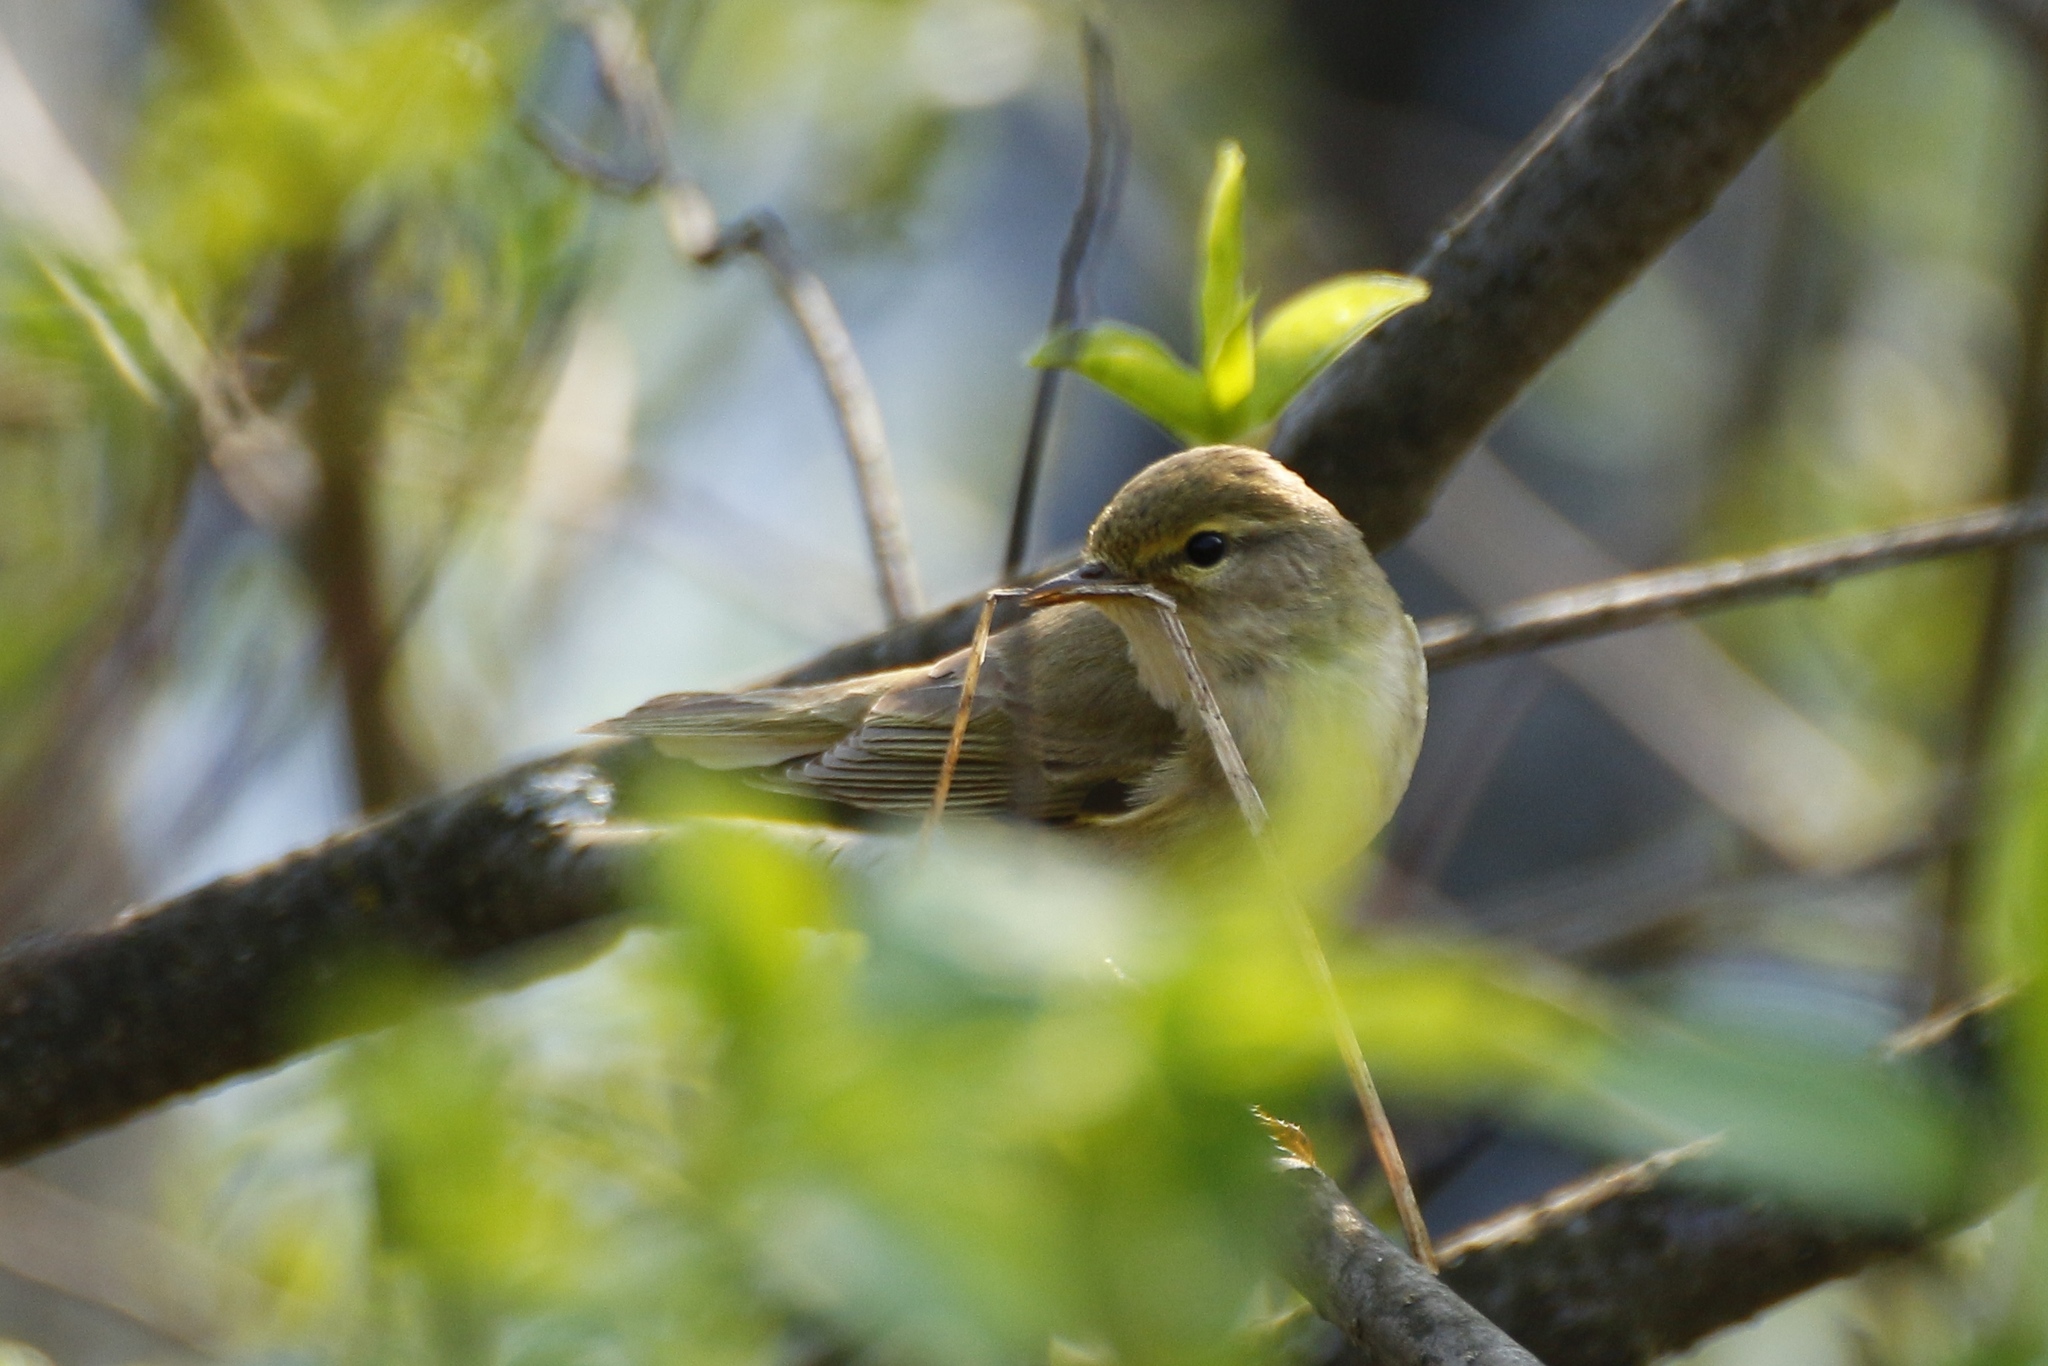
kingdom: Animalia
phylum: Chordata
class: Aves
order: Passeriformes
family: Phylloscopidae
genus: Phylloscopus
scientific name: Phylloscopus trochilus
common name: Willow warbler
